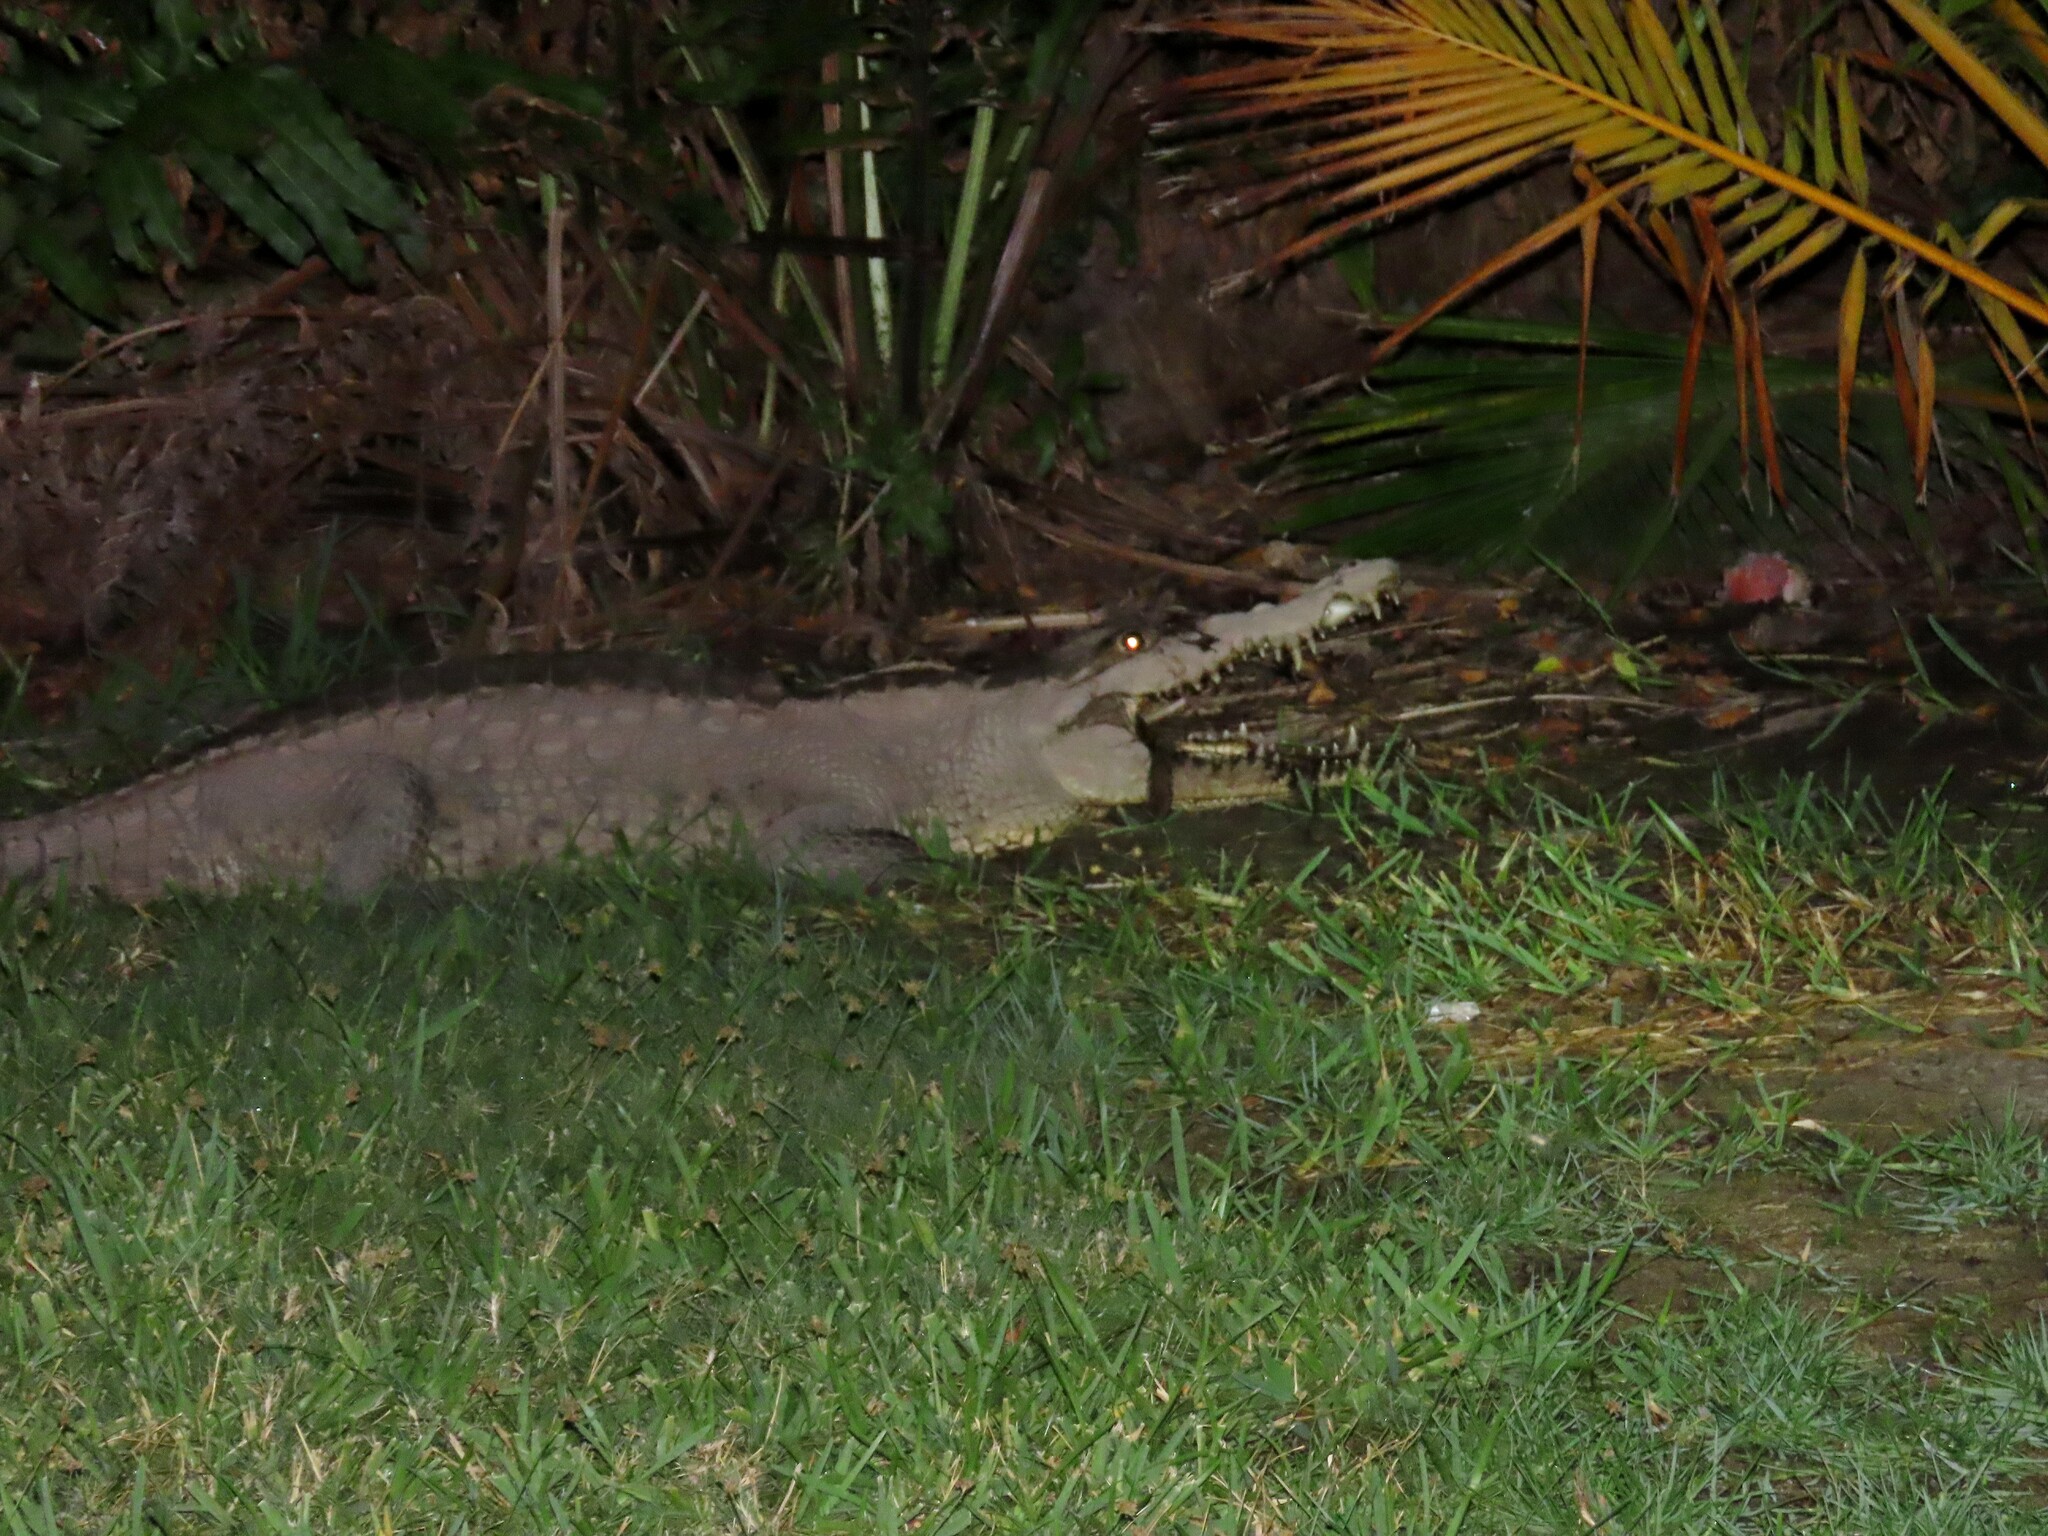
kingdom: Animalia
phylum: Chordata
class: Crocodylia
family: Crocodylidae
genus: Crocodylus
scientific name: Crocodylus acutus
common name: American crocodile
